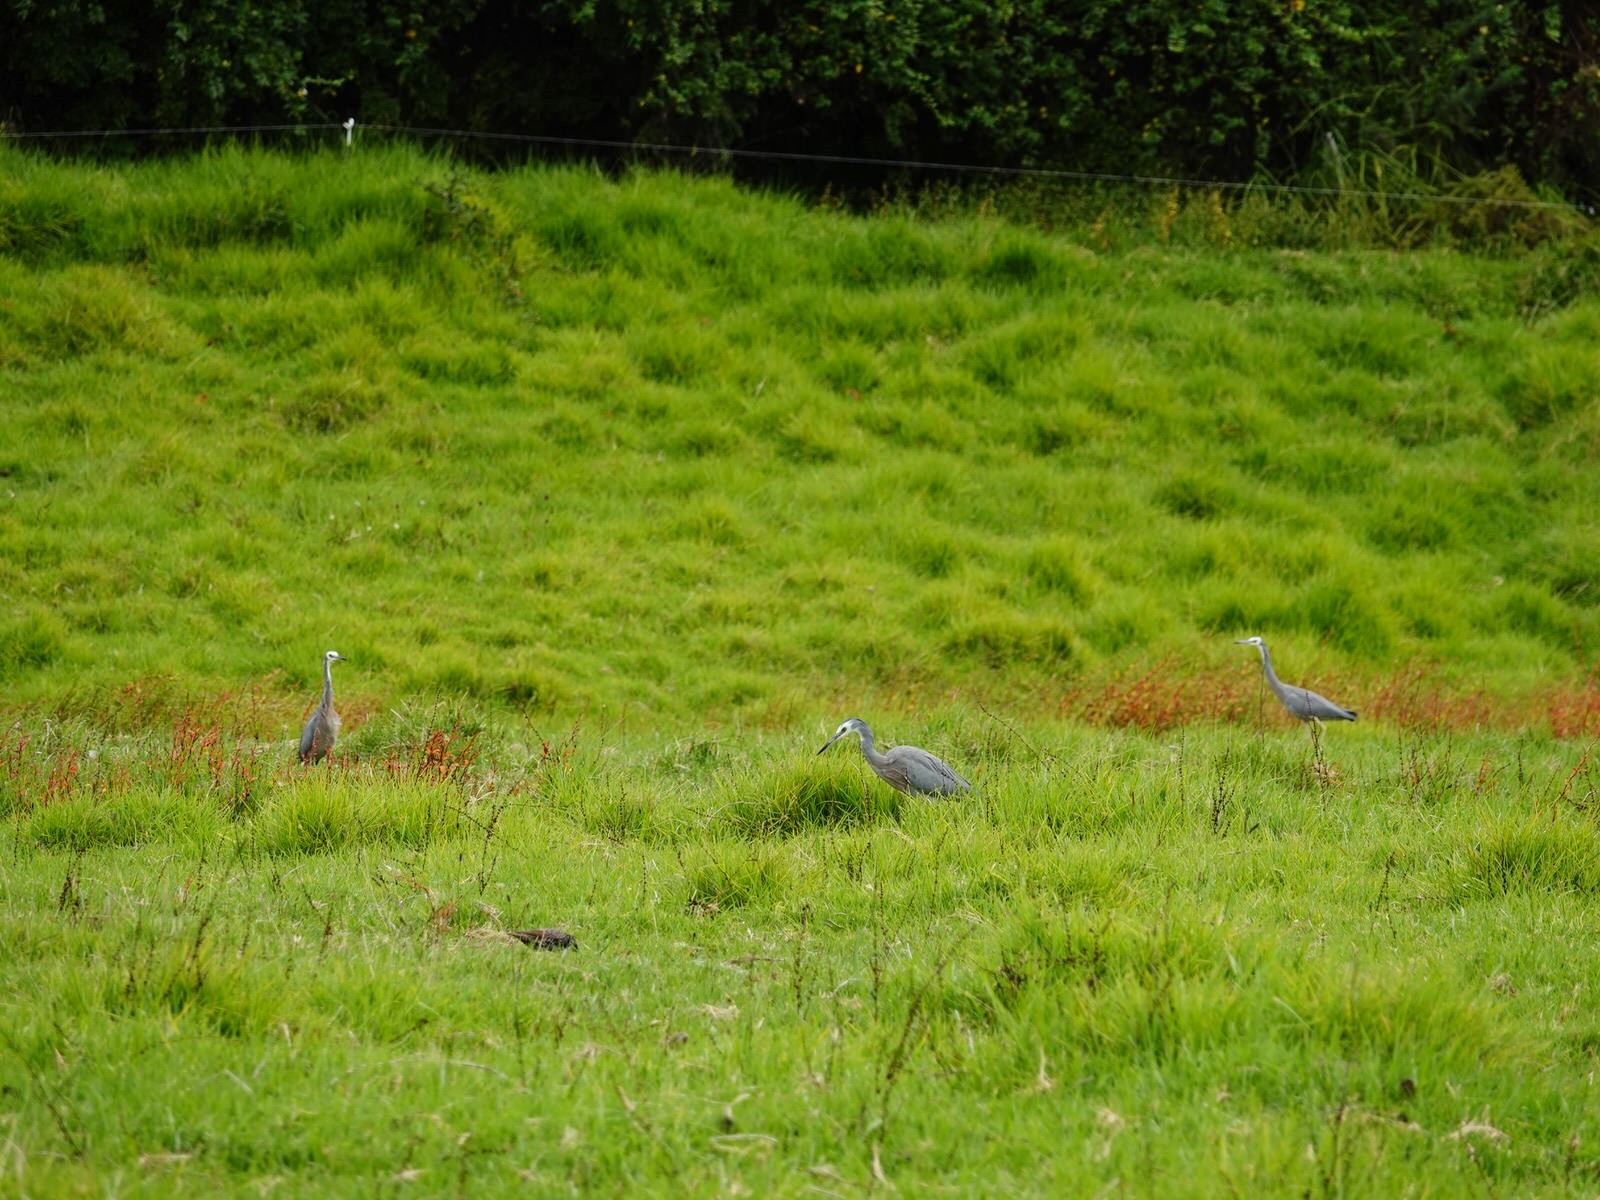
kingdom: Animalia
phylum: Chordata
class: Aves
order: Pelecaniformes
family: Ardeidae
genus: Egretta
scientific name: Egretta novaehollandiae
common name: White-faced heron
